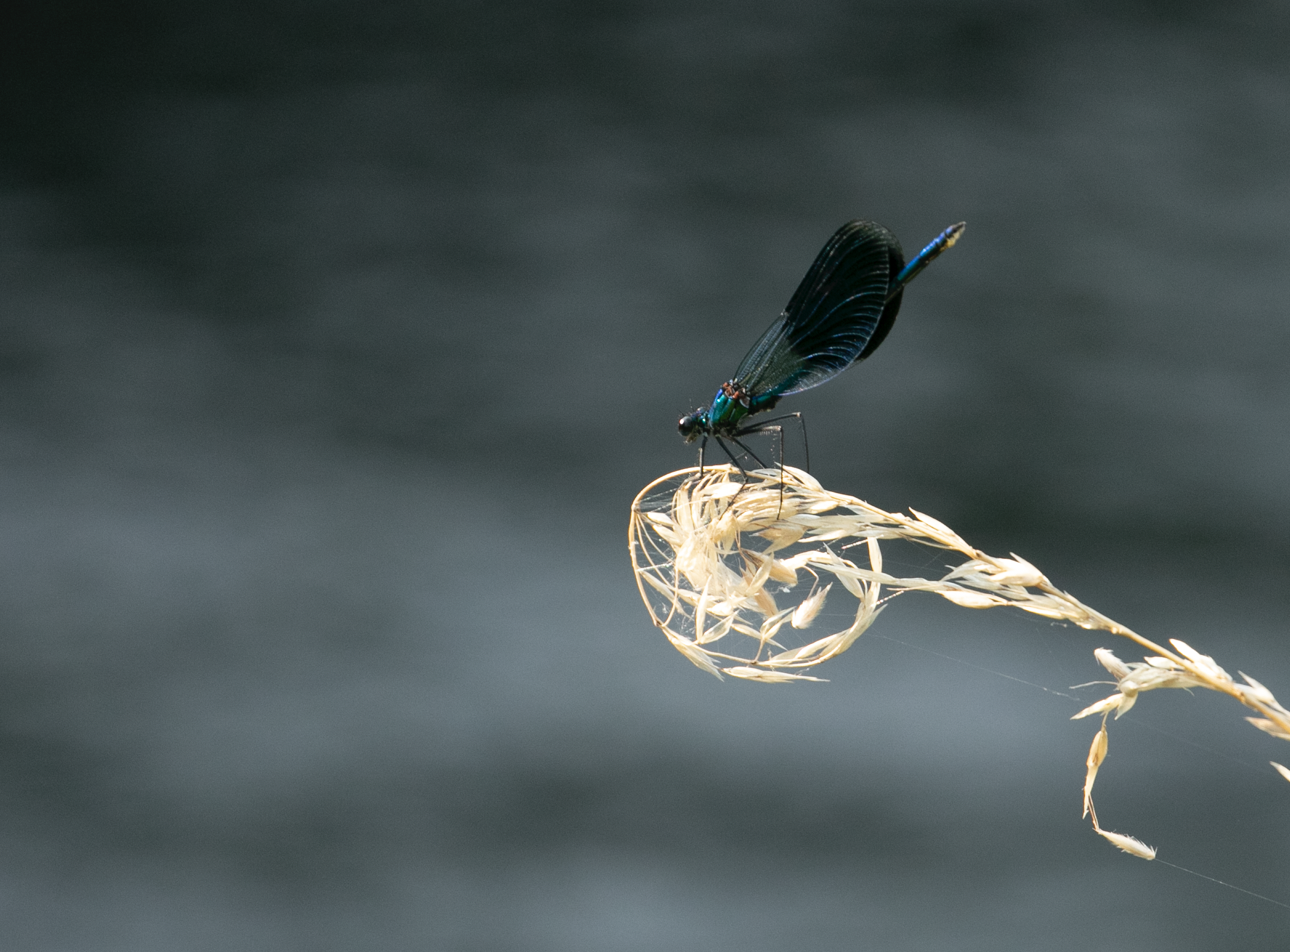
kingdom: Animalia
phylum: Arthropoda
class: Insecta
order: Odonata
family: Calopterygidae
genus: Calopteryx
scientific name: Calopteryx splendens
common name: Banded demoiselle
